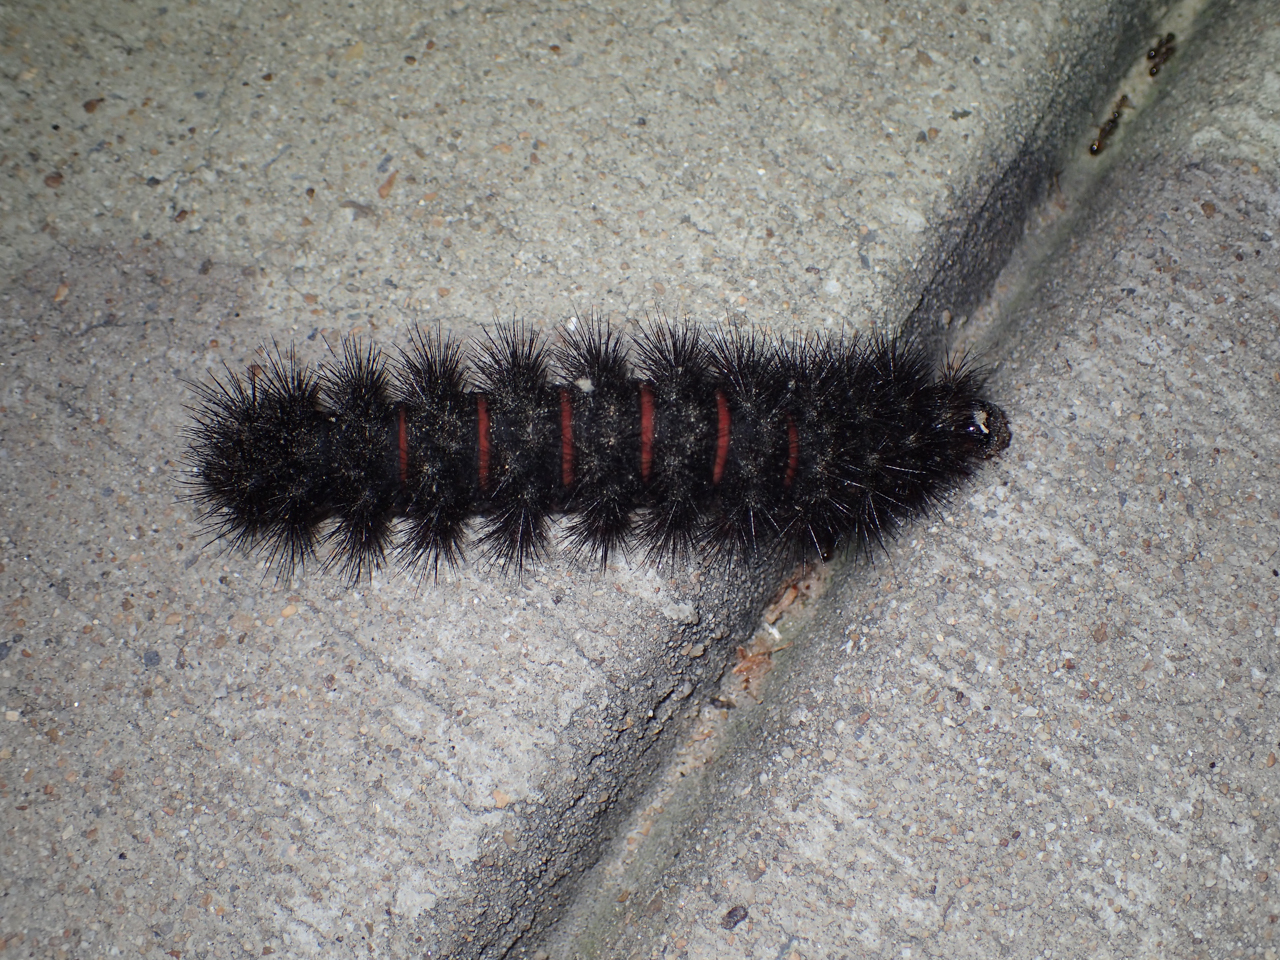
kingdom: Animalia
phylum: Arthropoda
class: Insecta
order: Lepidoptera
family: Erebidae
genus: Hypercompe
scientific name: Hypercompe scribonia
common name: Giant leopard moth
